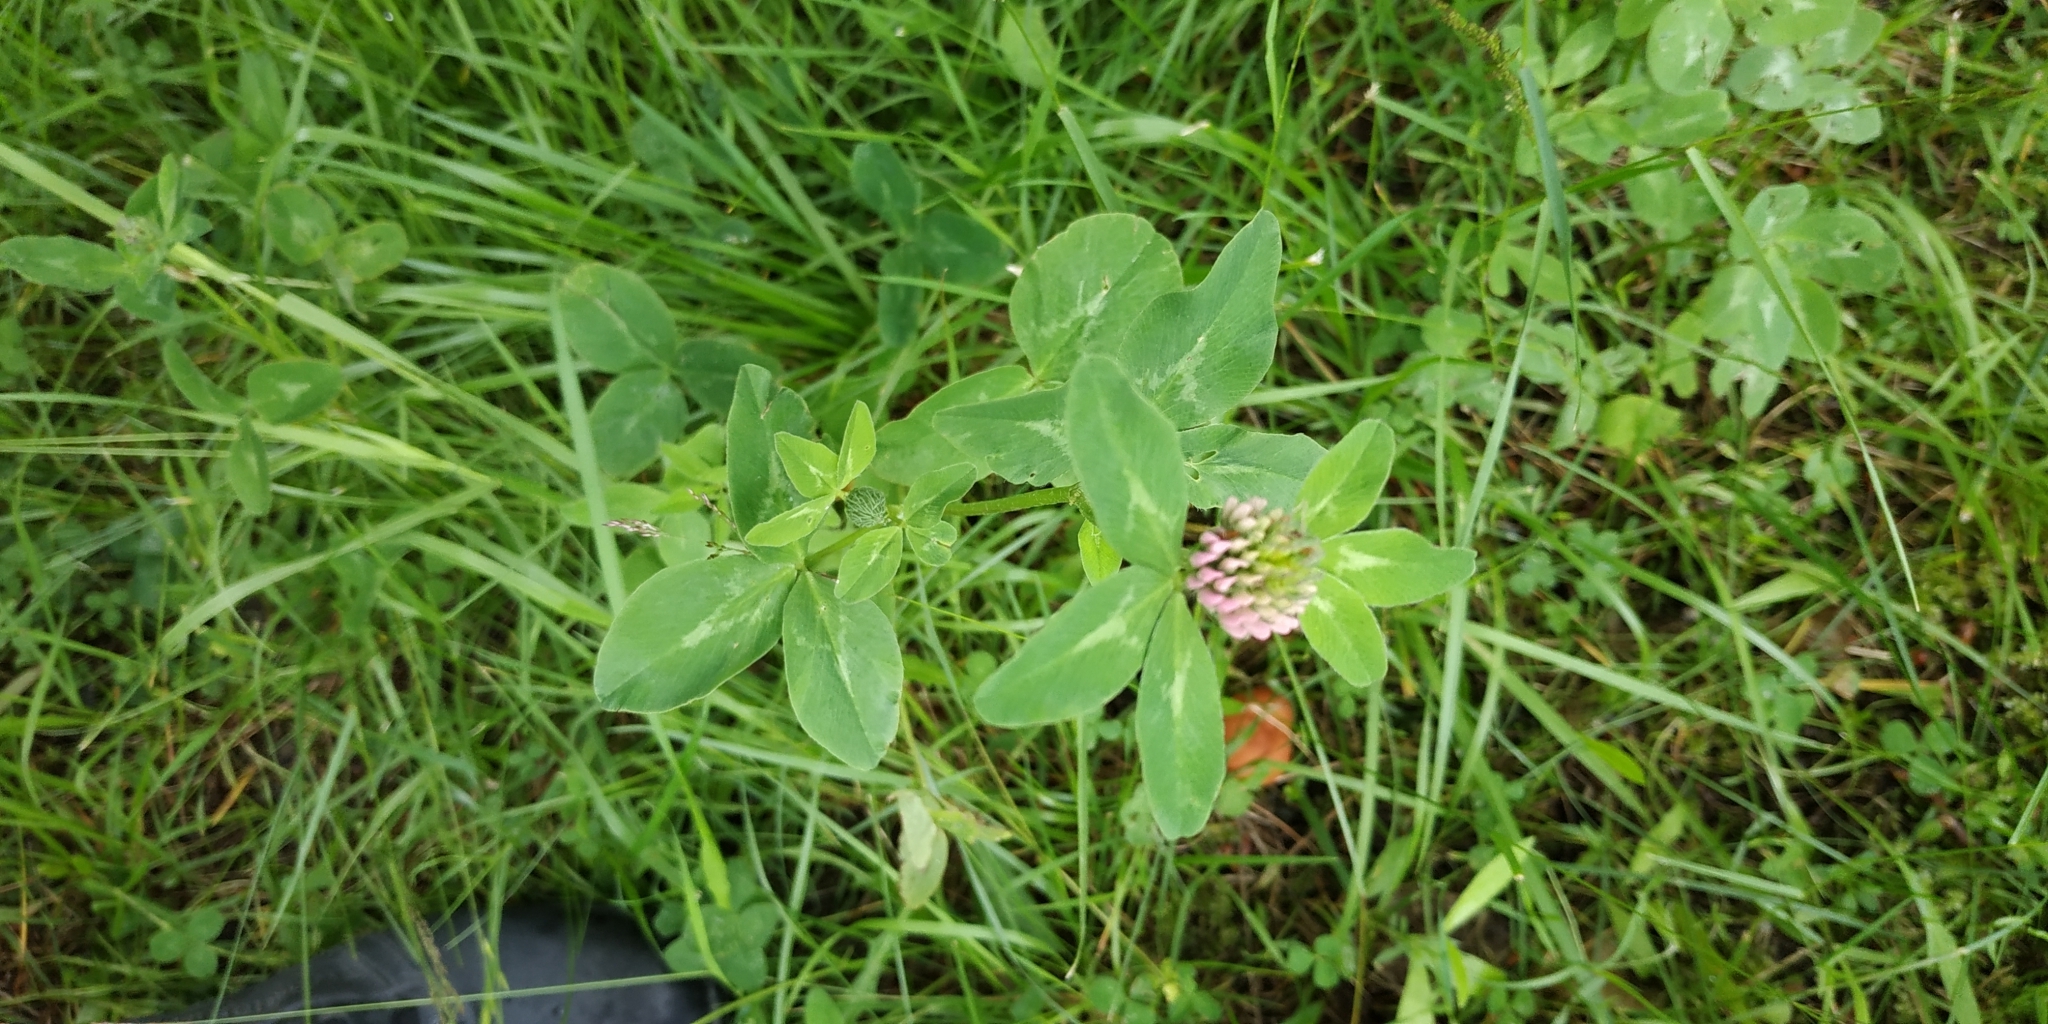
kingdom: Plantae
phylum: Tracheophyta
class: Magnoliopsida
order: Fabales
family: Fabaceae
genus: Trifolium
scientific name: Trifolium pratense
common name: Red clover
